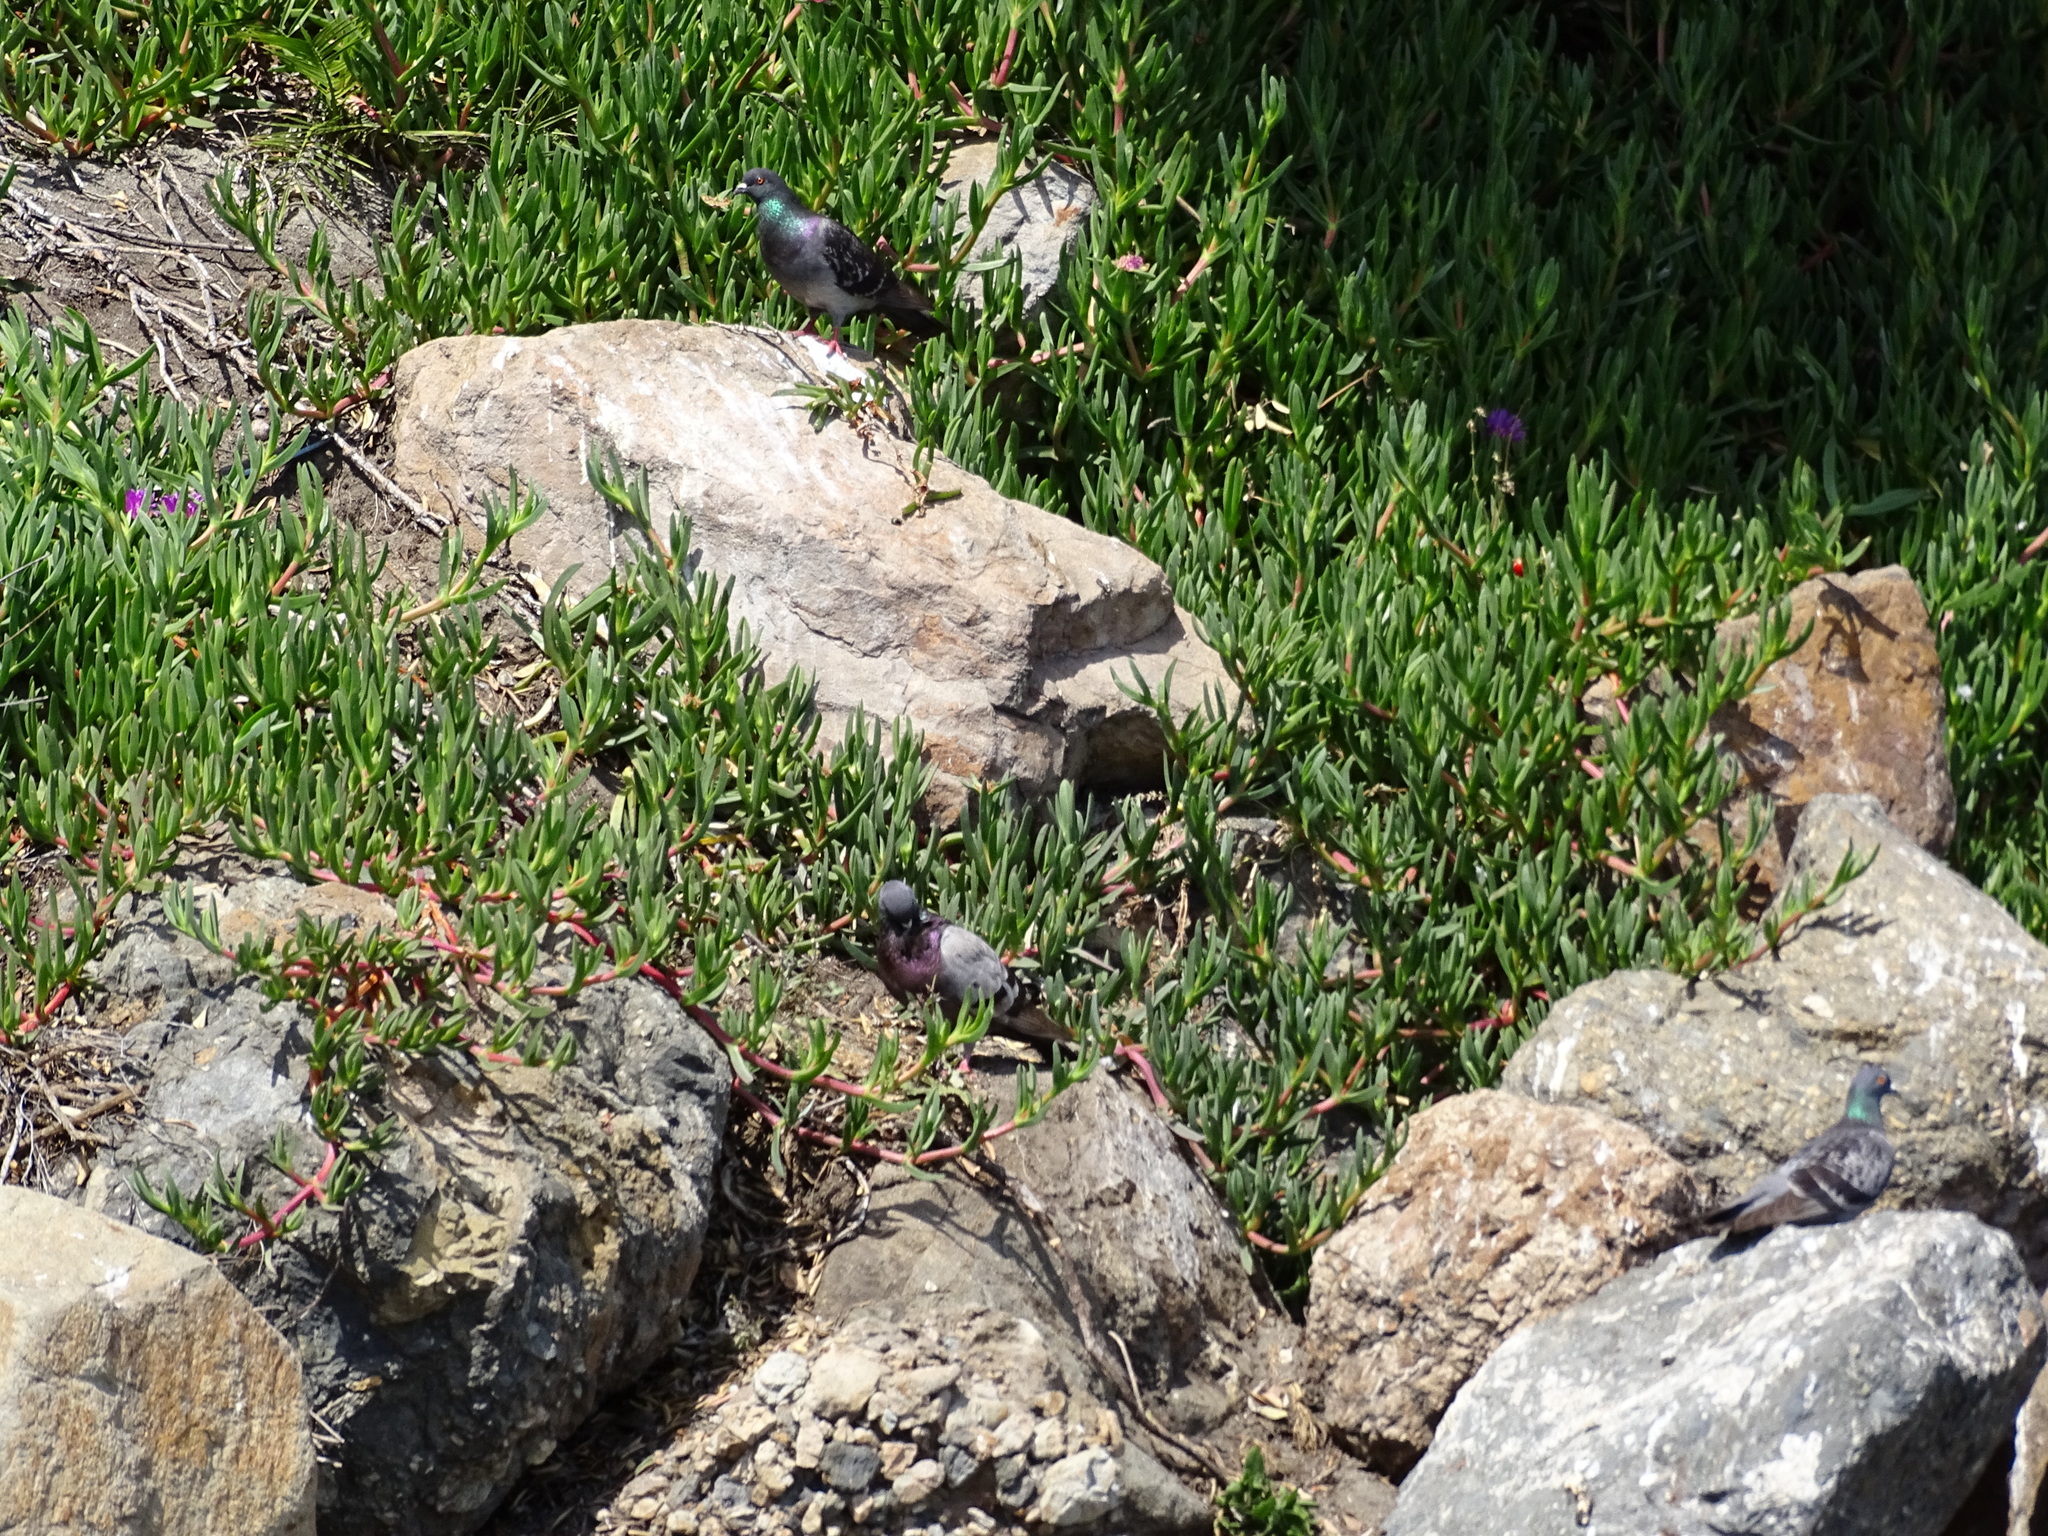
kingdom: Animalia
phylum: Chordata
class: Aves
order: Columbiformes
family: Columbidae
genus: Columba
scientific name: Columba livia
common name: Rock pigeon
